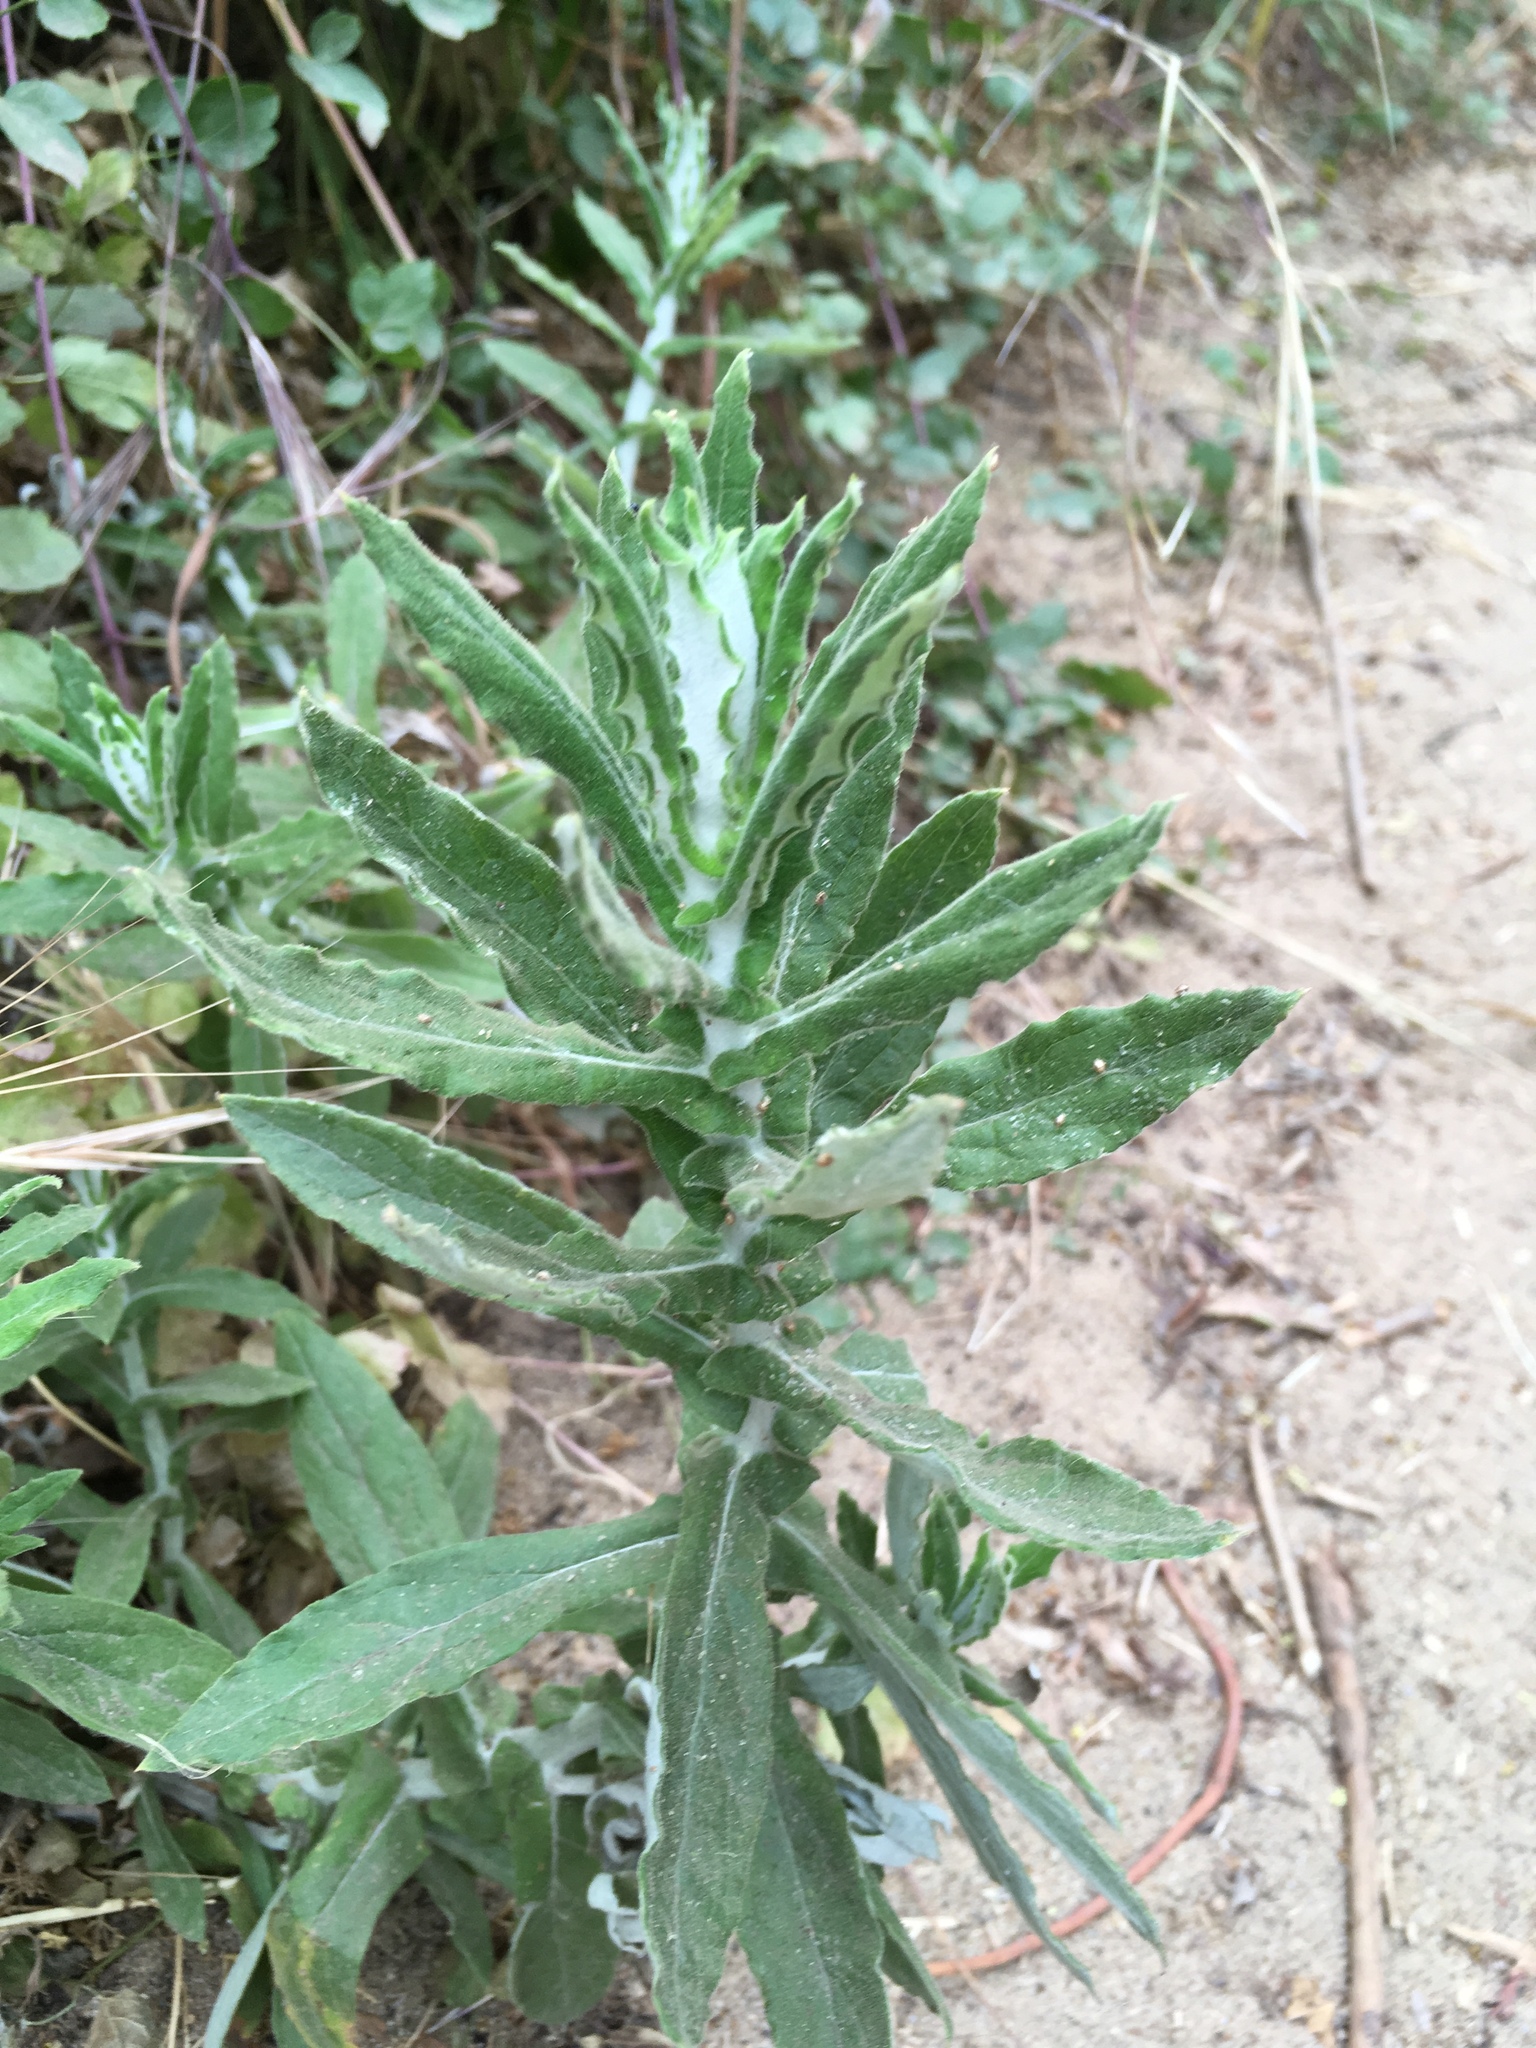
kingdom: Plantae
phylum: Tracheophyta
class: Magnoliopsida
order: Asterales
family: Asteraceae
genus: Pseudognaphalium
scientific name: Pseudognaphalium biolettii
